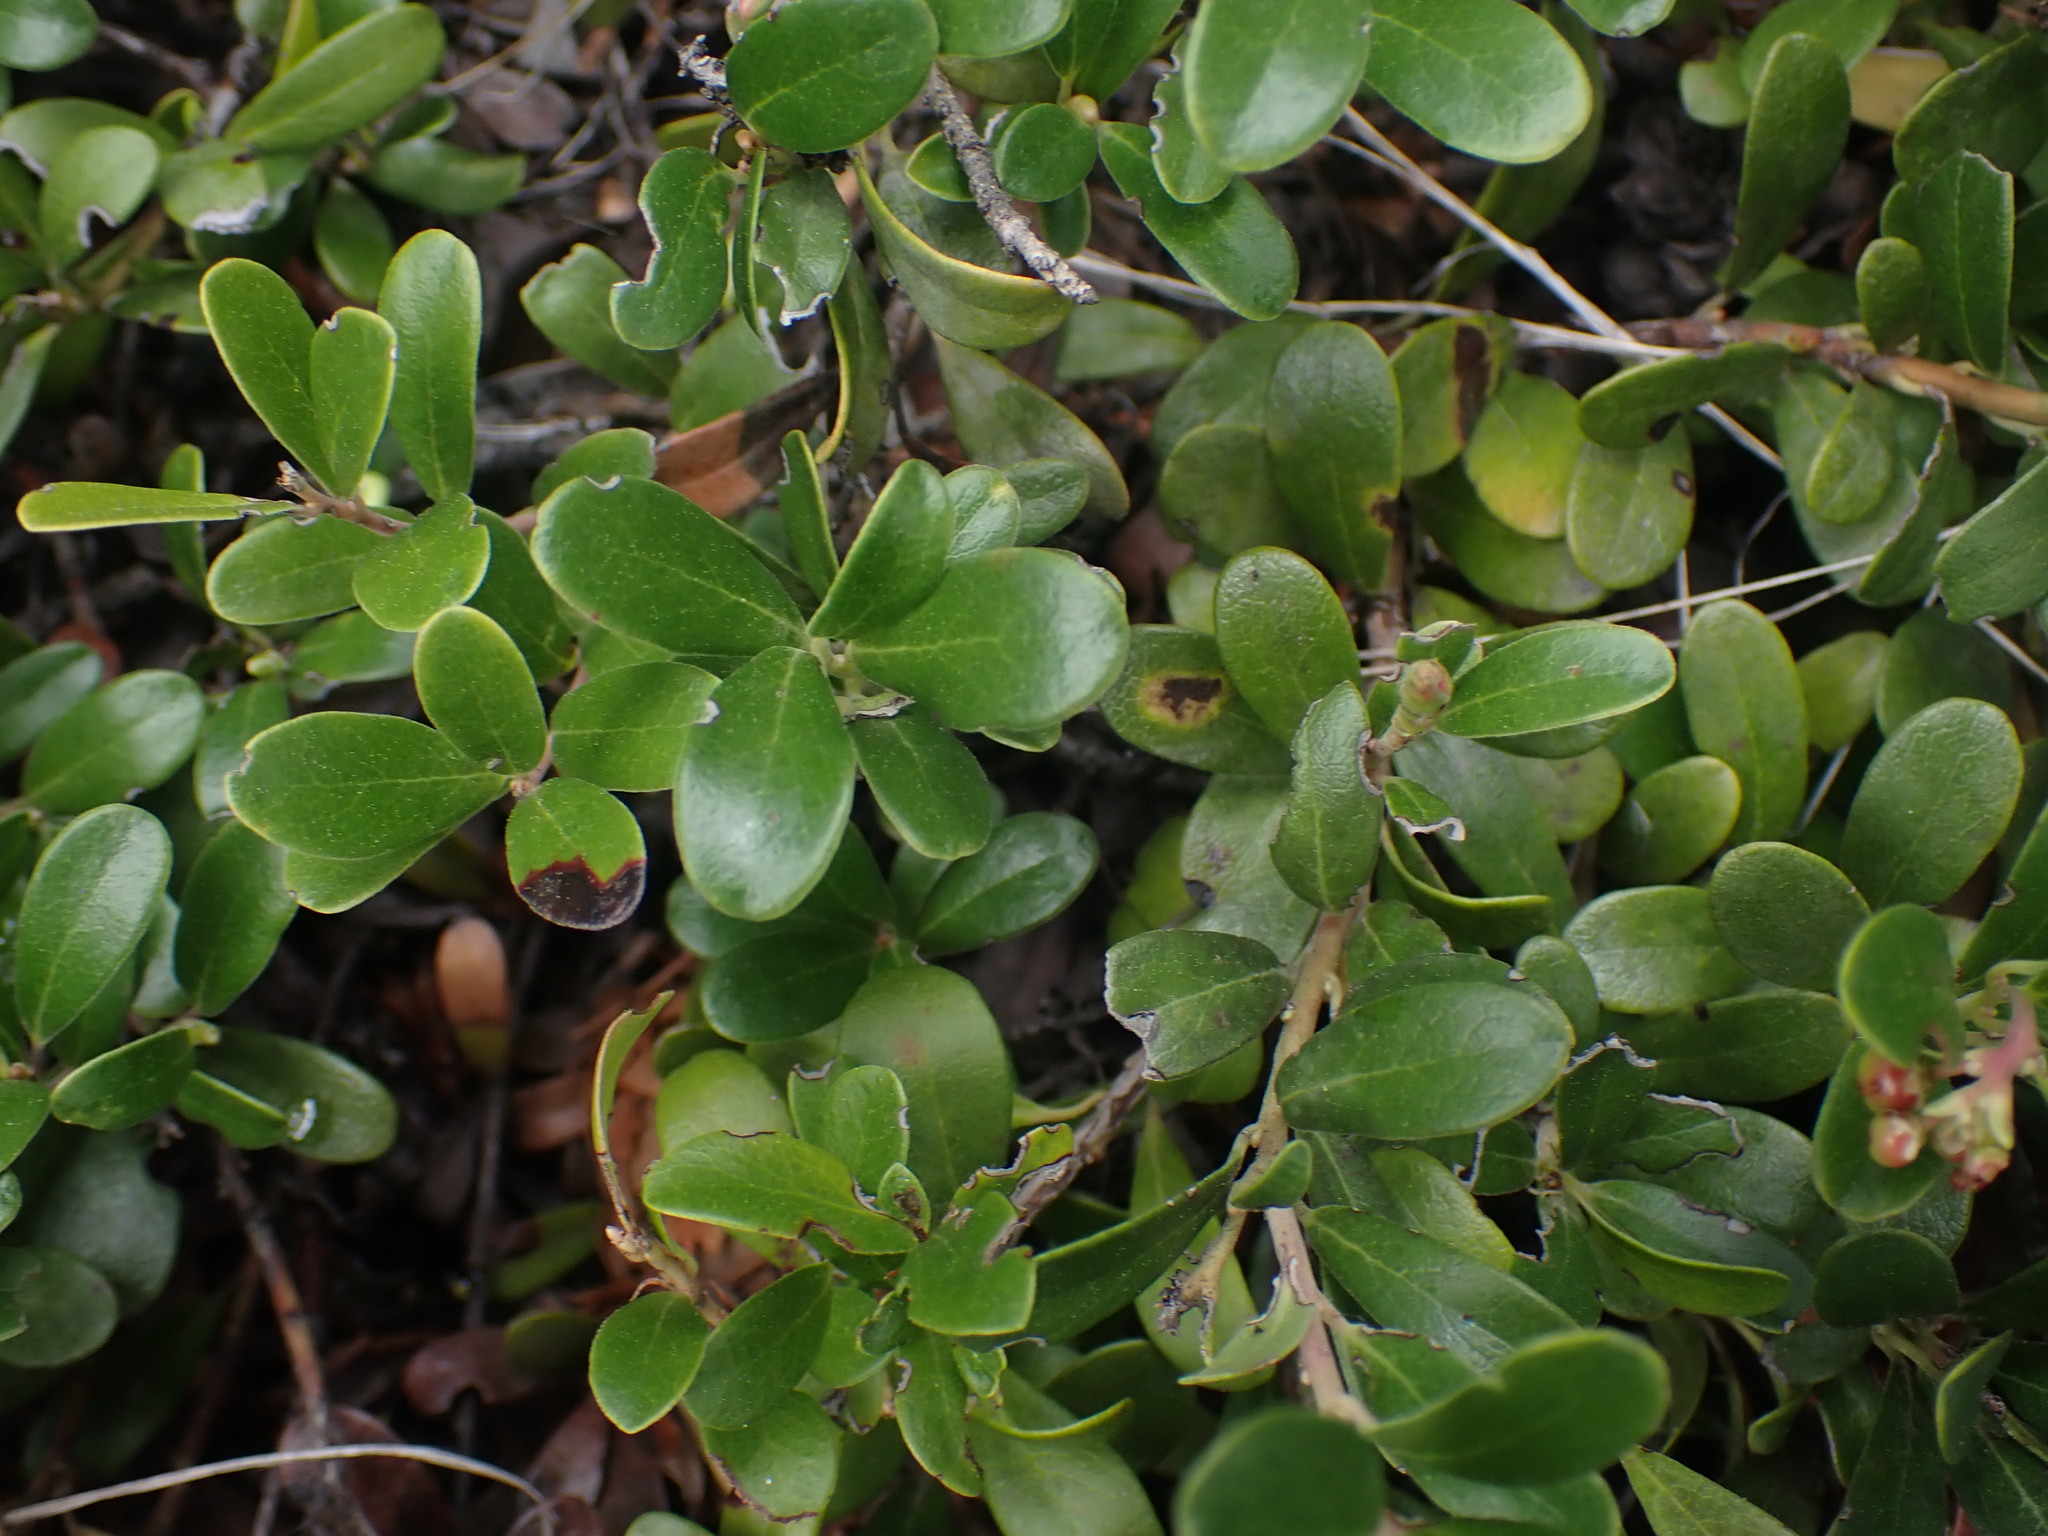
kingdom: Plantae
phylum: Tracheophyta
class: Magnoliopsida
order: Ericales
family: Ericaceae
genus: Arctostaphylos
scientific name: Arctostaphylos uva-ursi
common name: Bearberry
